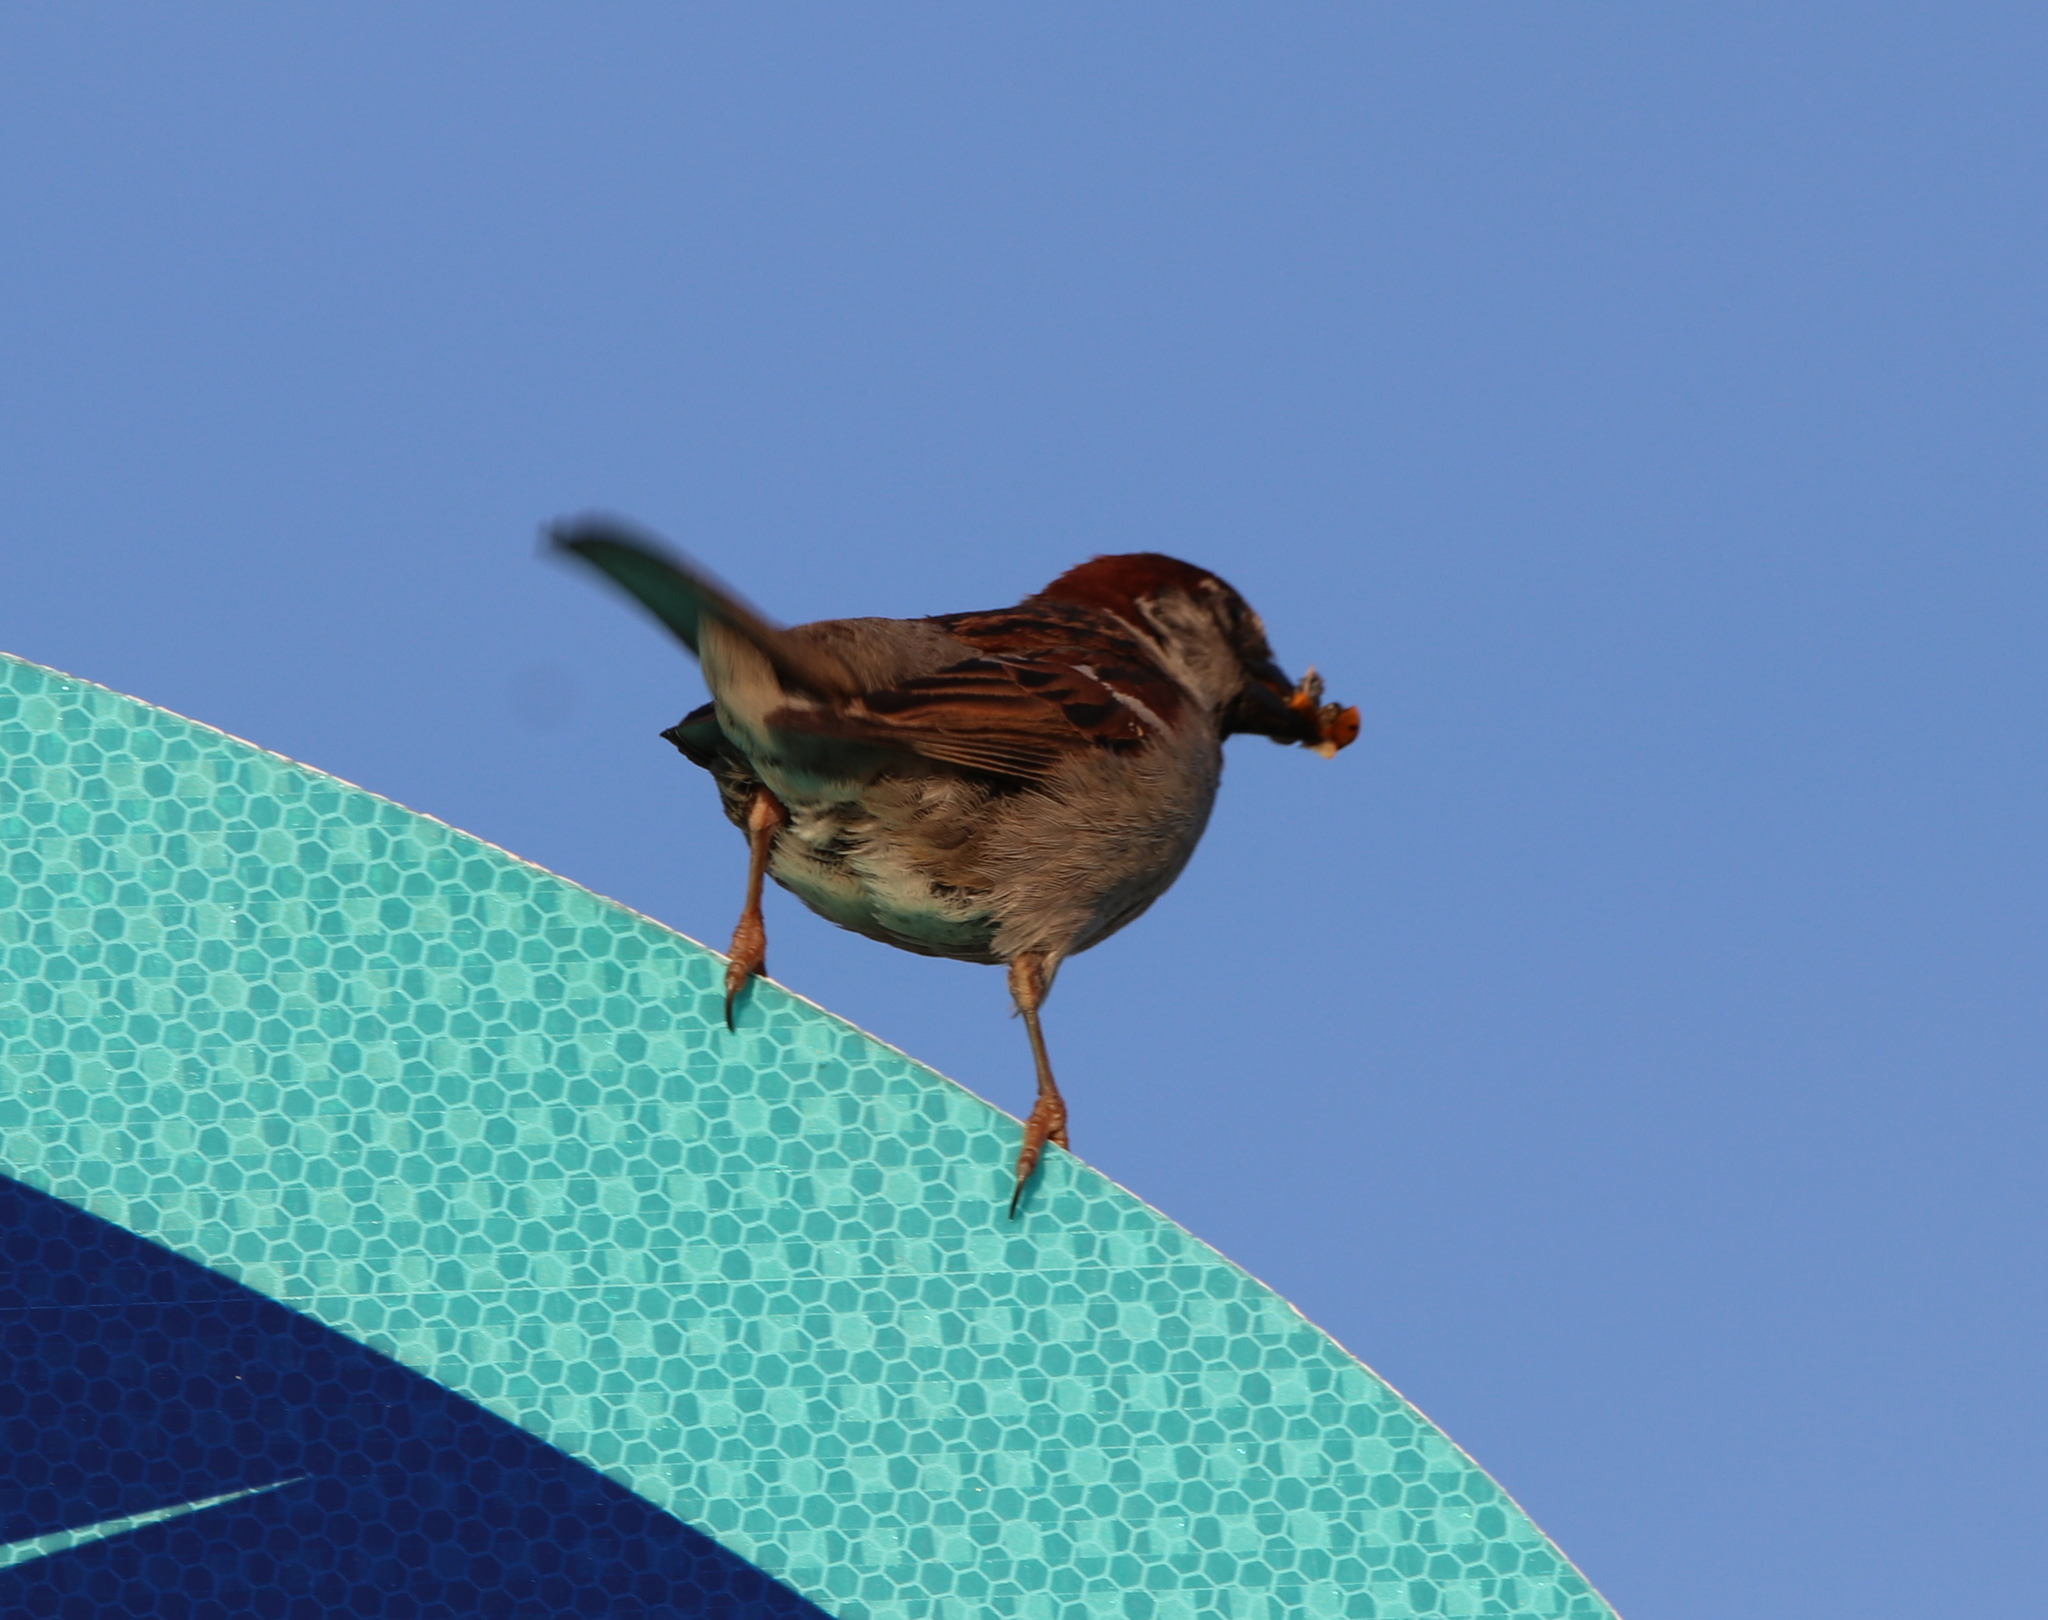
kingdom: Animalia
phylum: Chordata
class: Aves
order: Passeriformes
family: Passeridae
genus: Passer
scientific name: Passer domesticus
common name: House sparrow
